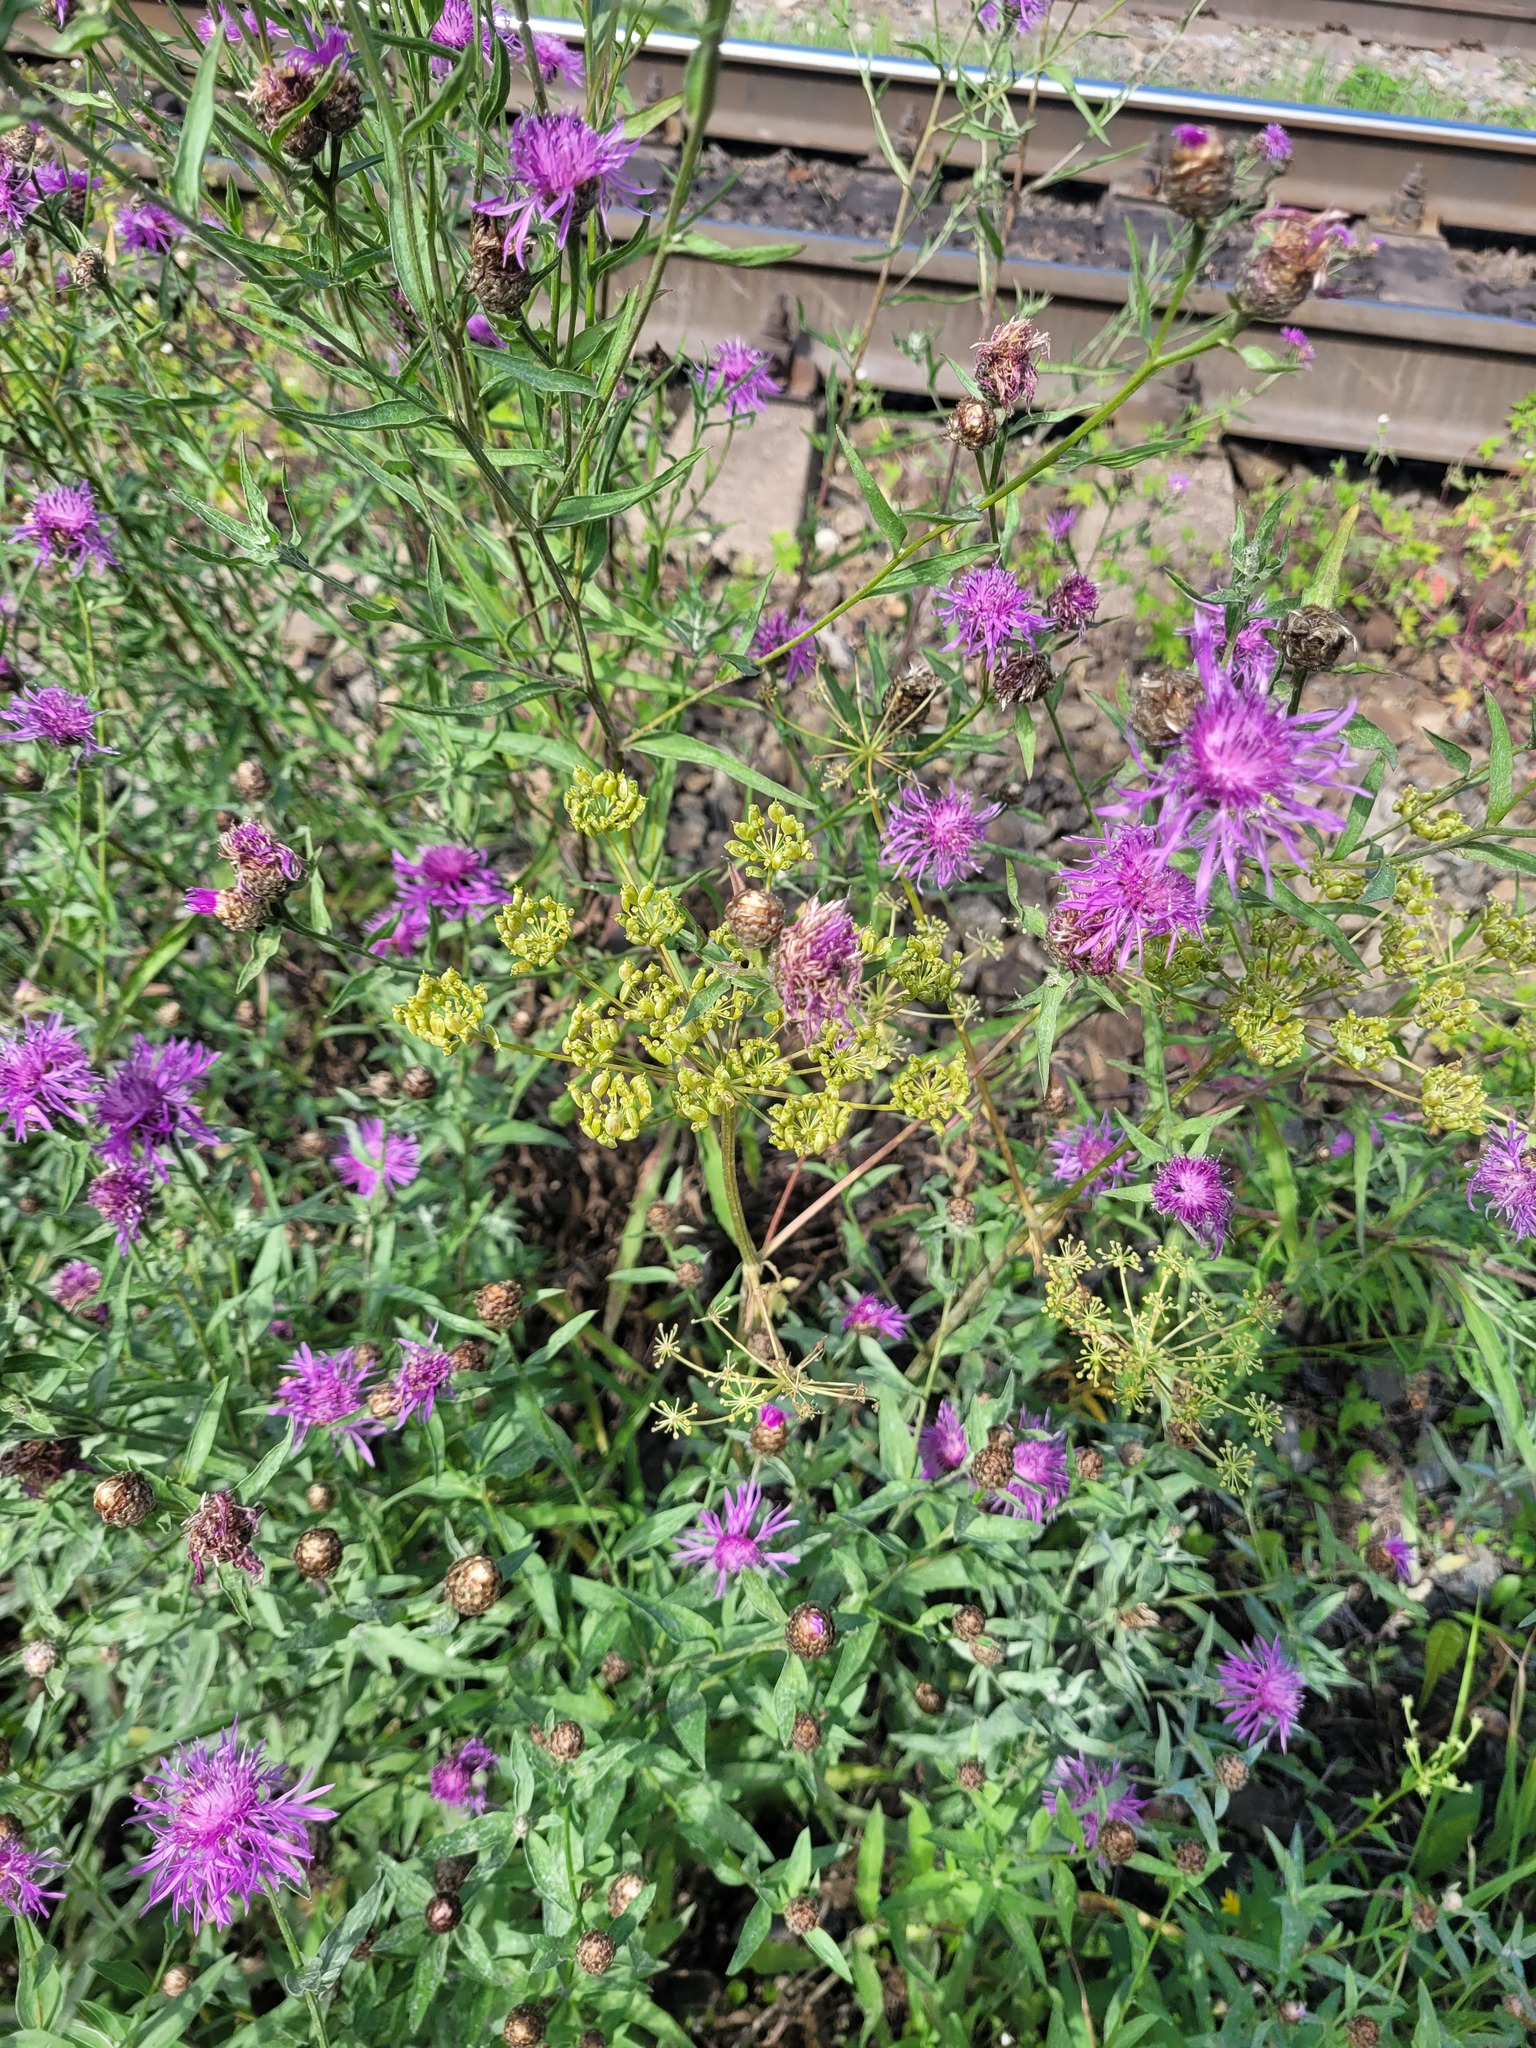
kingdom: Plantae
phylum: Tracheophyta
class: Magnoliopsida
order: Apiales
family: Apiaceae
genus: Heracleum
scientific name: Heracleum sphondylium
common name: Hogweed
